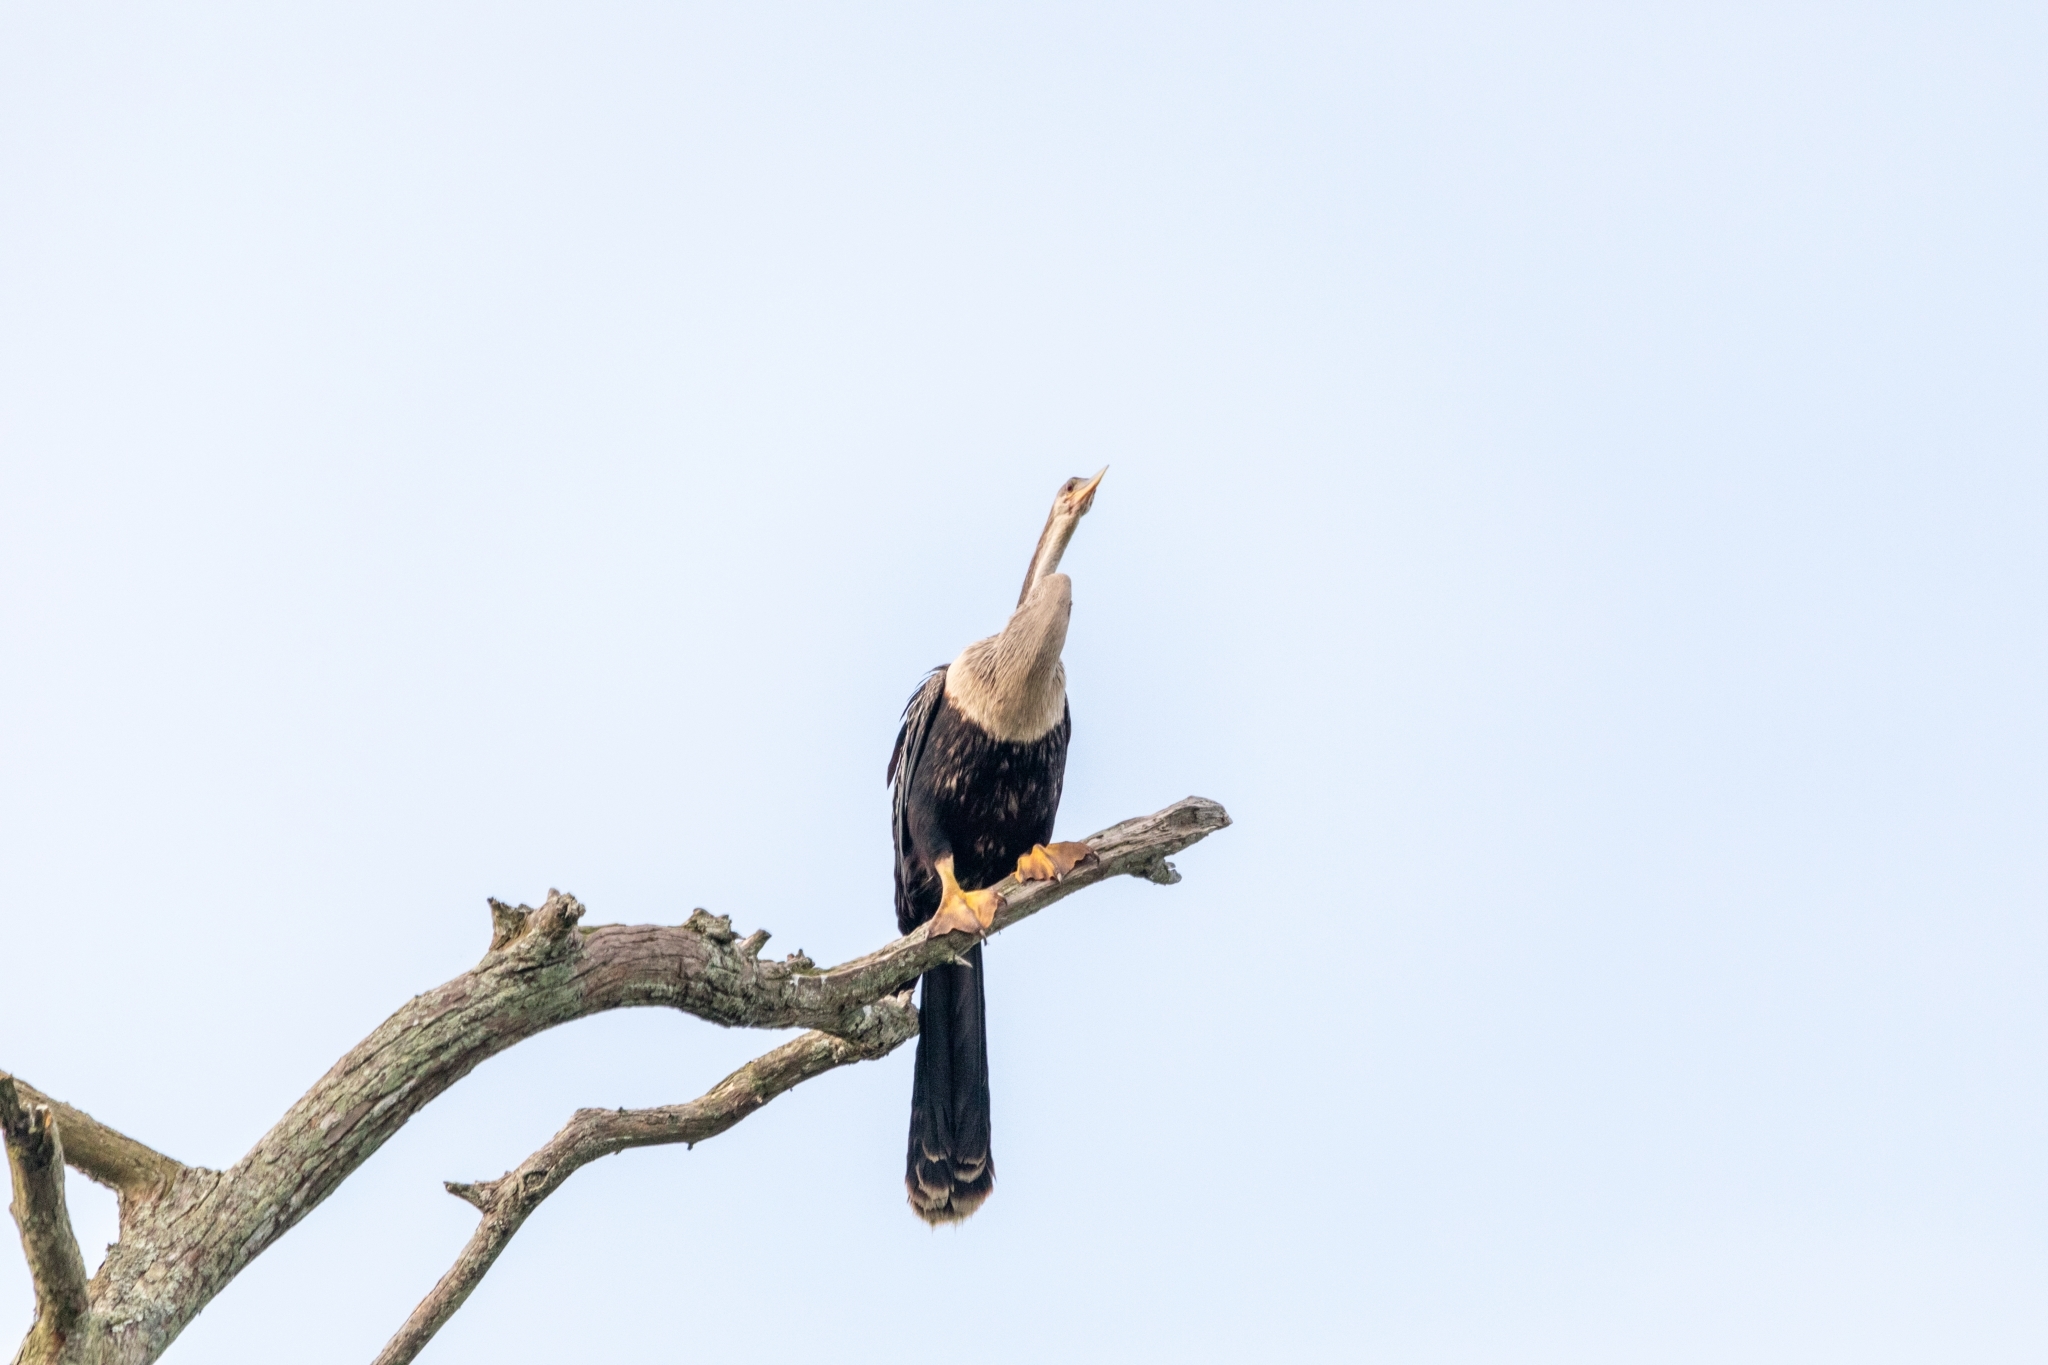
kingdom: Animalia
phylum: Chordata
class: Aves
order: Suliformes
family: Anhingidae
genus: Anhinga
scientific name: Anhinga anhinga
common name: Anhinga
